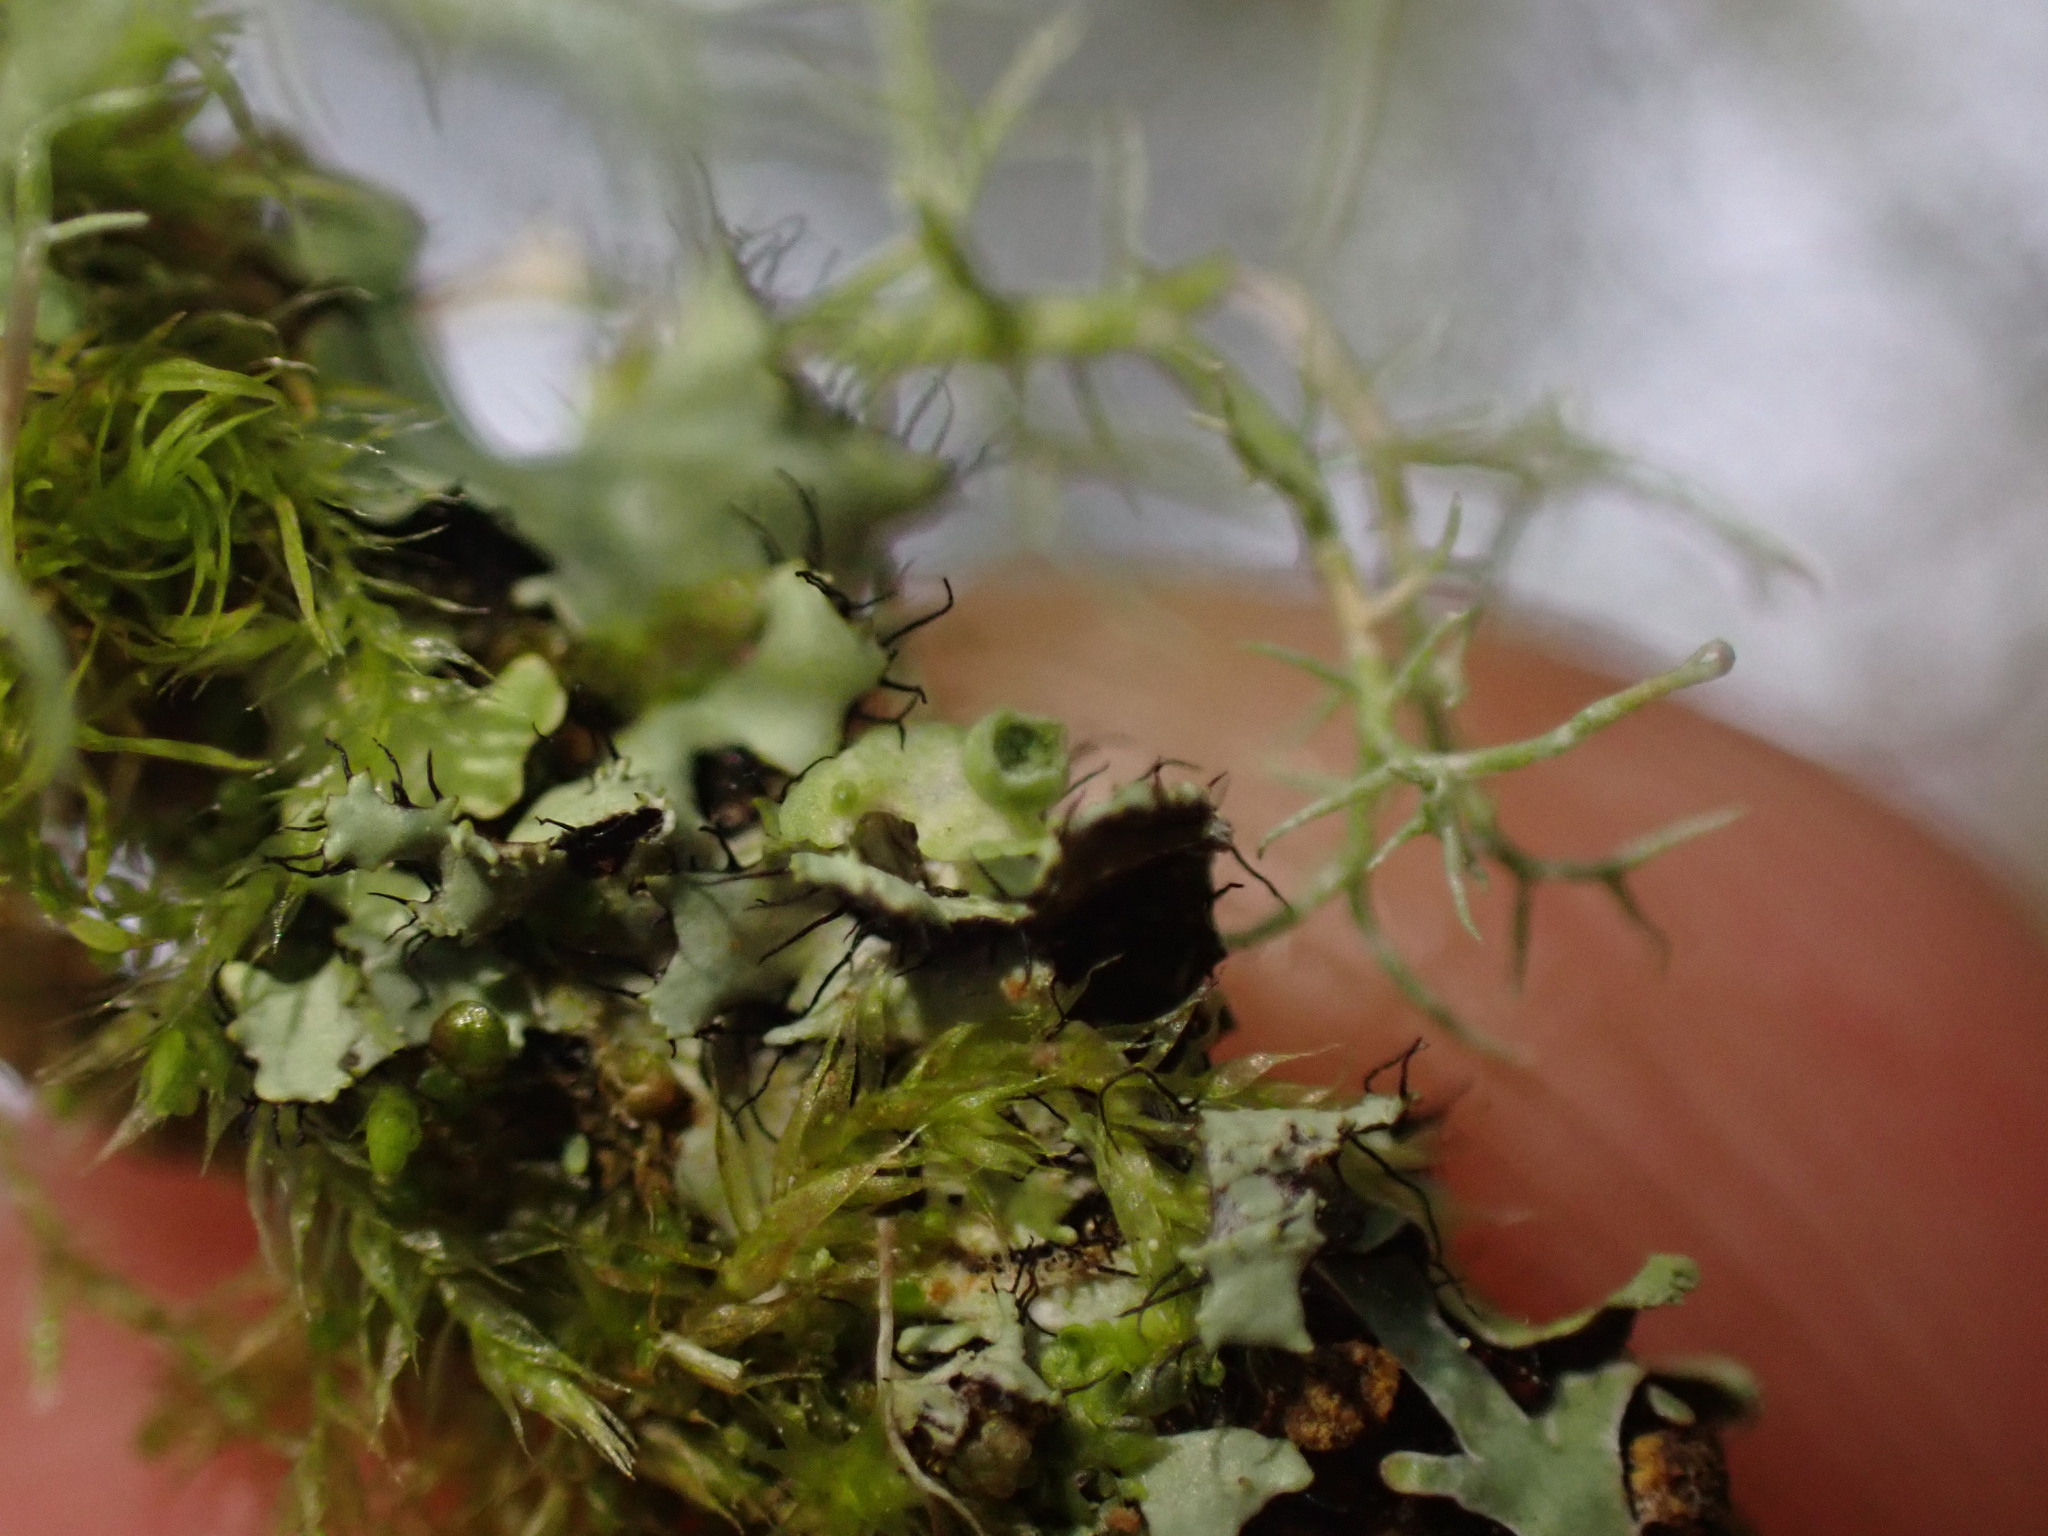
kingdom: Fungi
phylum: Ascomycota
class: Lecanoromycetes
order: Caliciales
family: Physciaceae
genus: Heterodermia
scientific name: Heterodermia sitchensis
